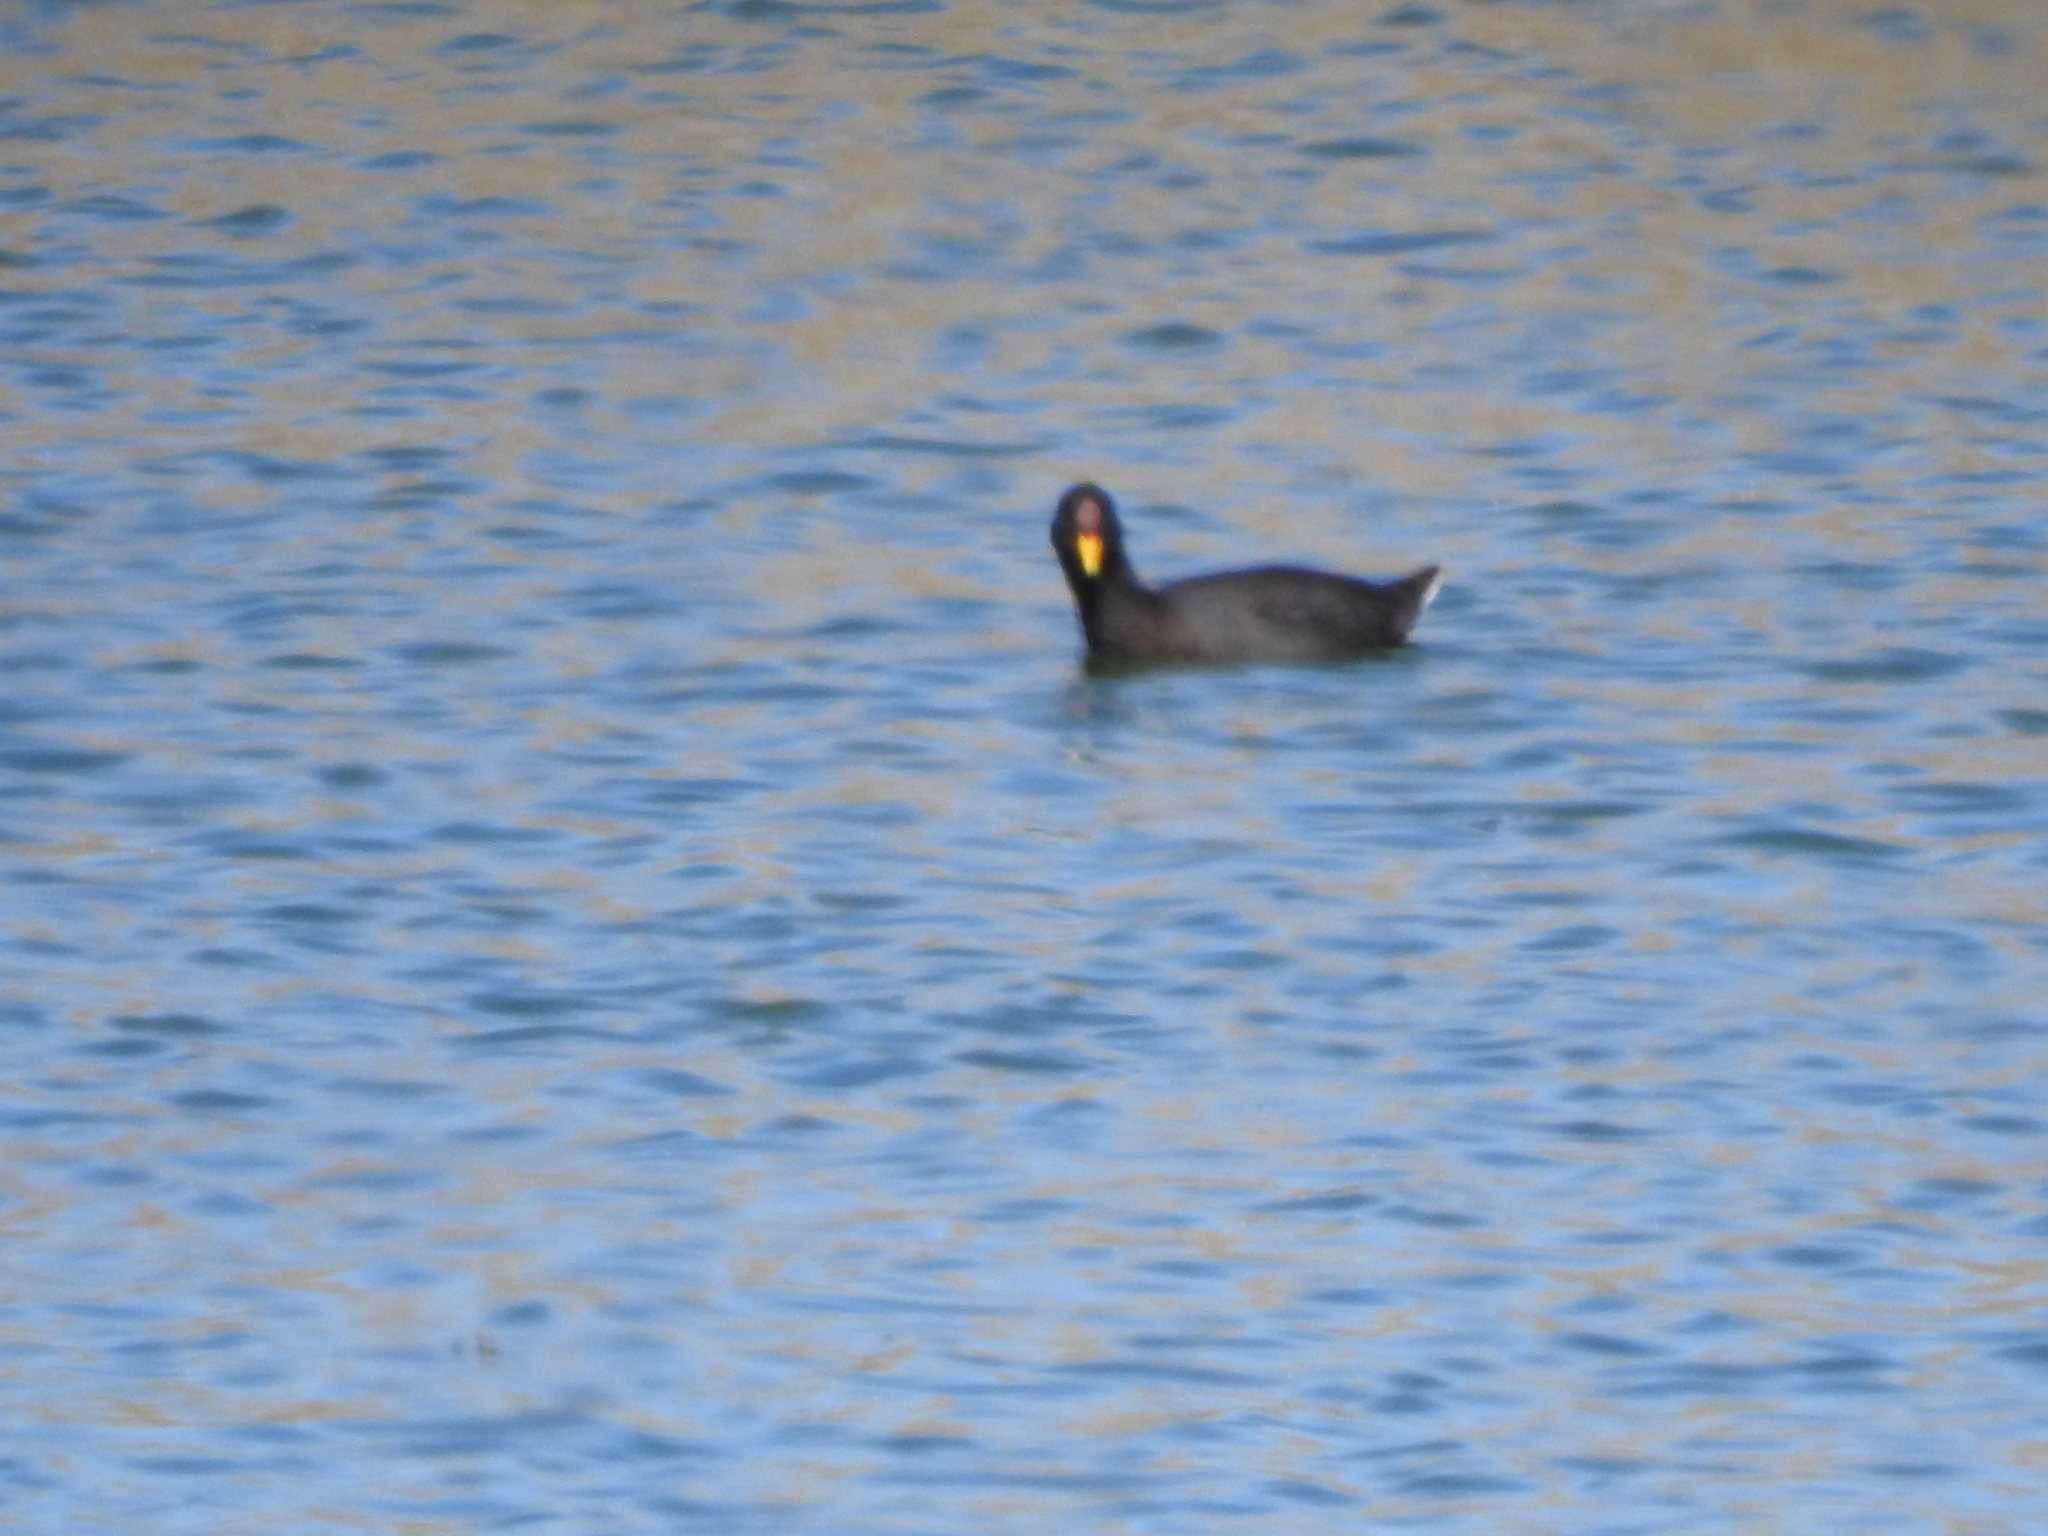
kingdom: Animalia
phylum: Chordata
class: Aves
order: Gruiformes
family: Rallidae
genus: Fulica
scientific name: Fulica rufifrons
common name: Red-fronted coot
